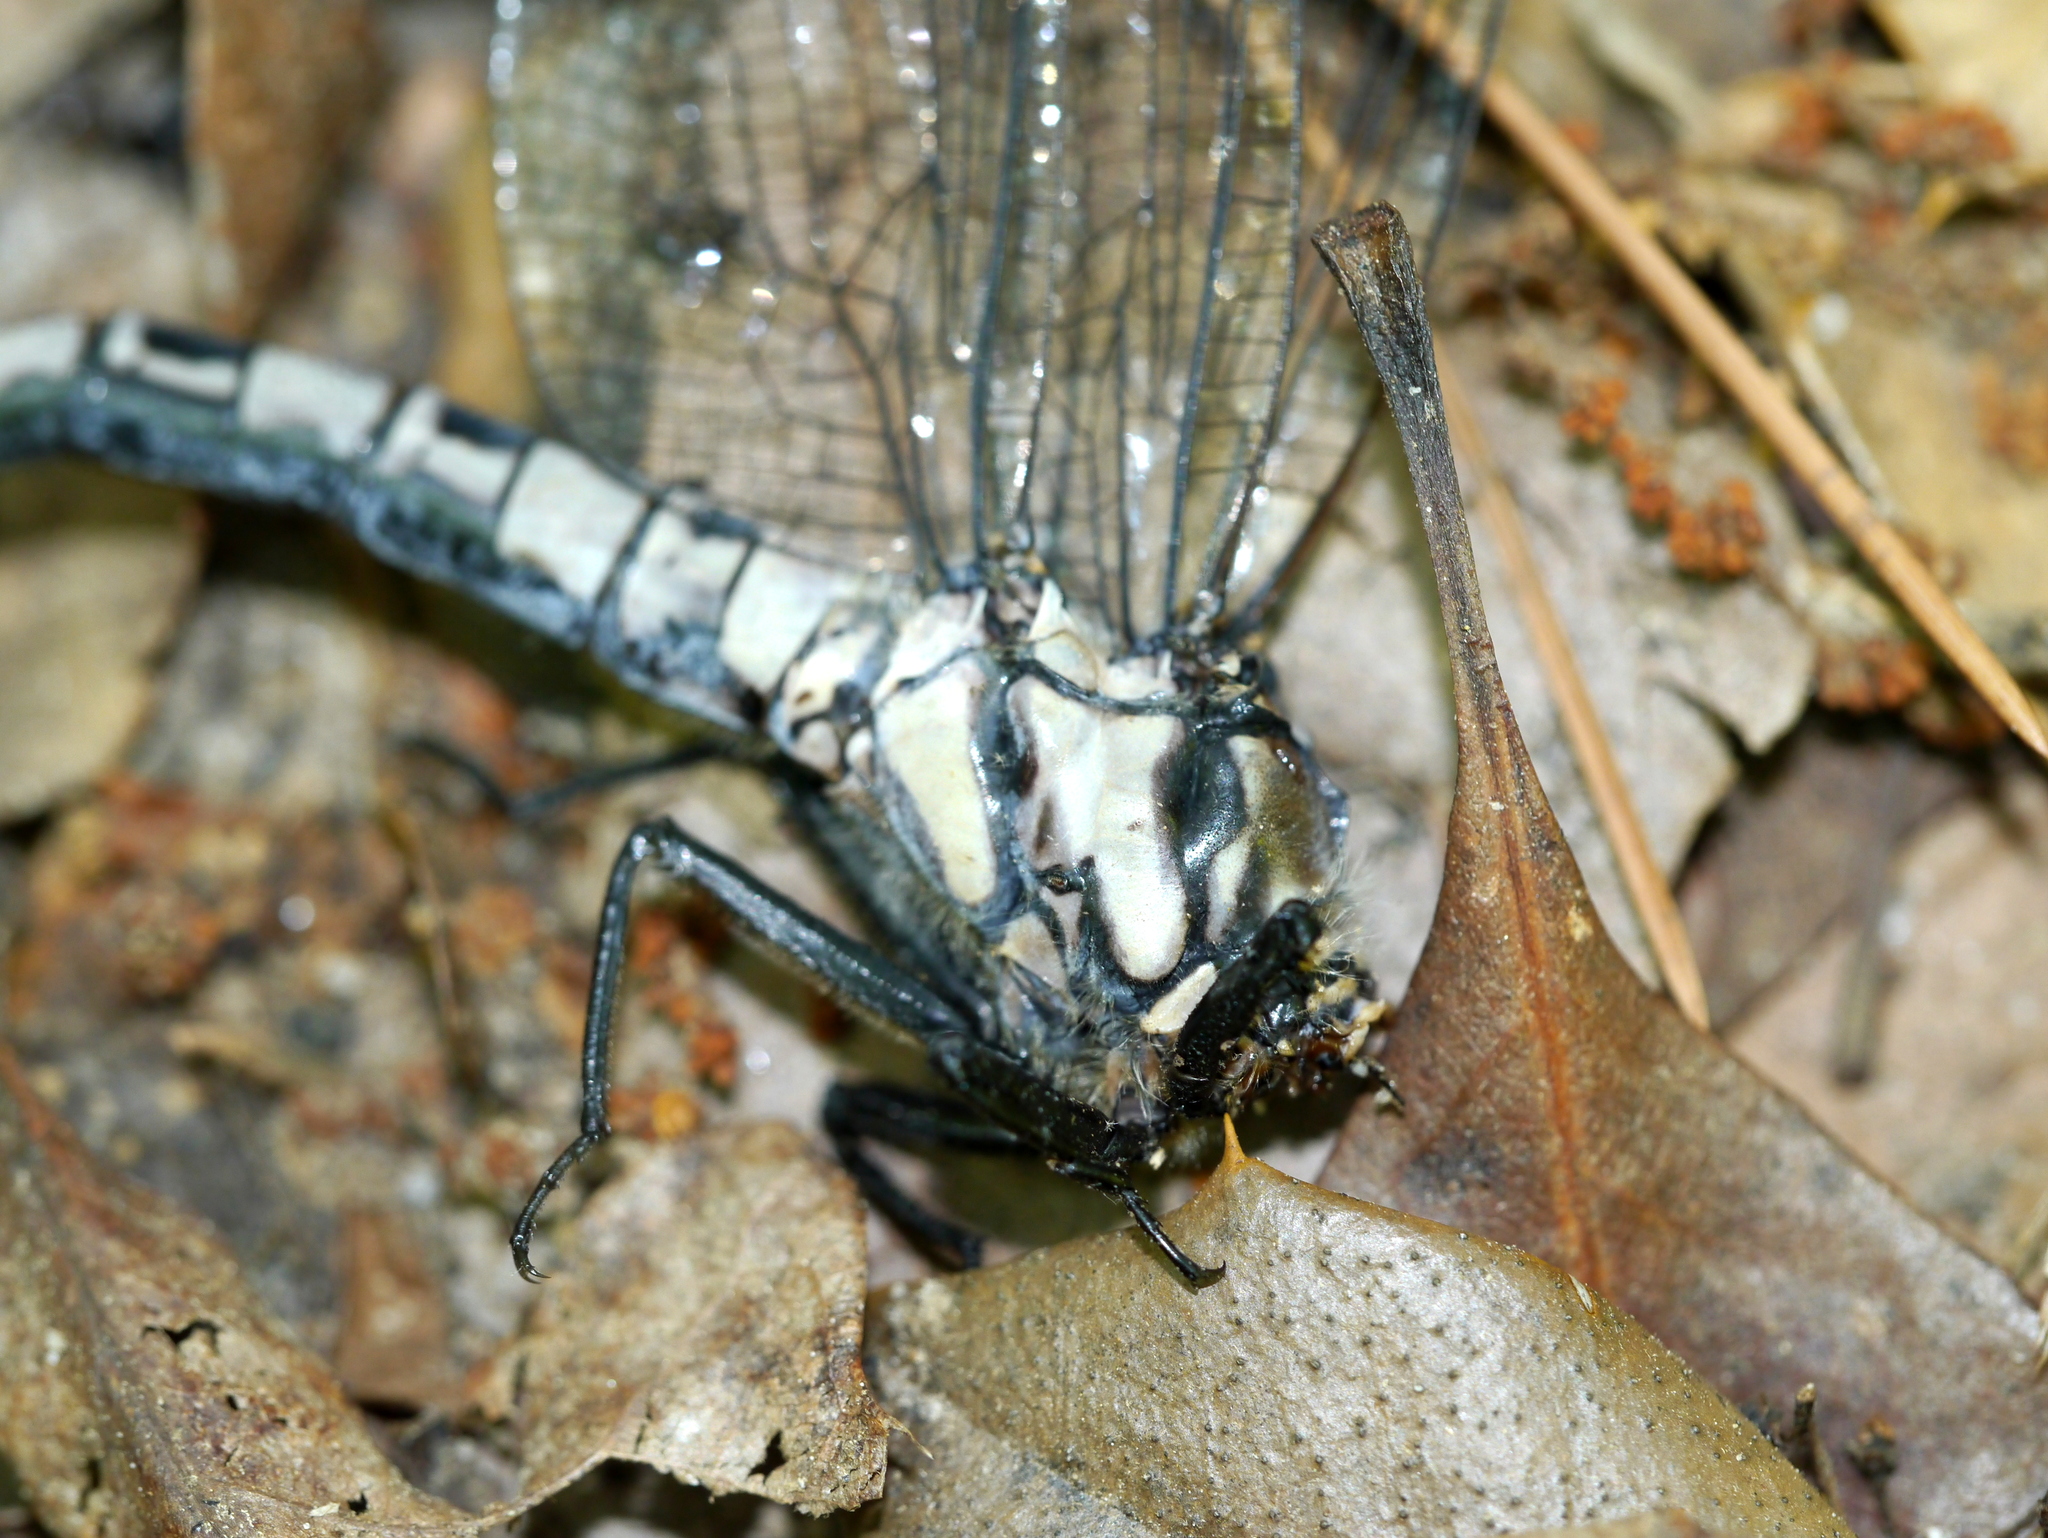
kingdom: Animalia
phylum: Arthropoda
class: Insecta
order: Odonata
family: Petaluridae
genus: Tachopteryx
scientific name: Tachopteryx thoreyi
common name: Gray petaltail
